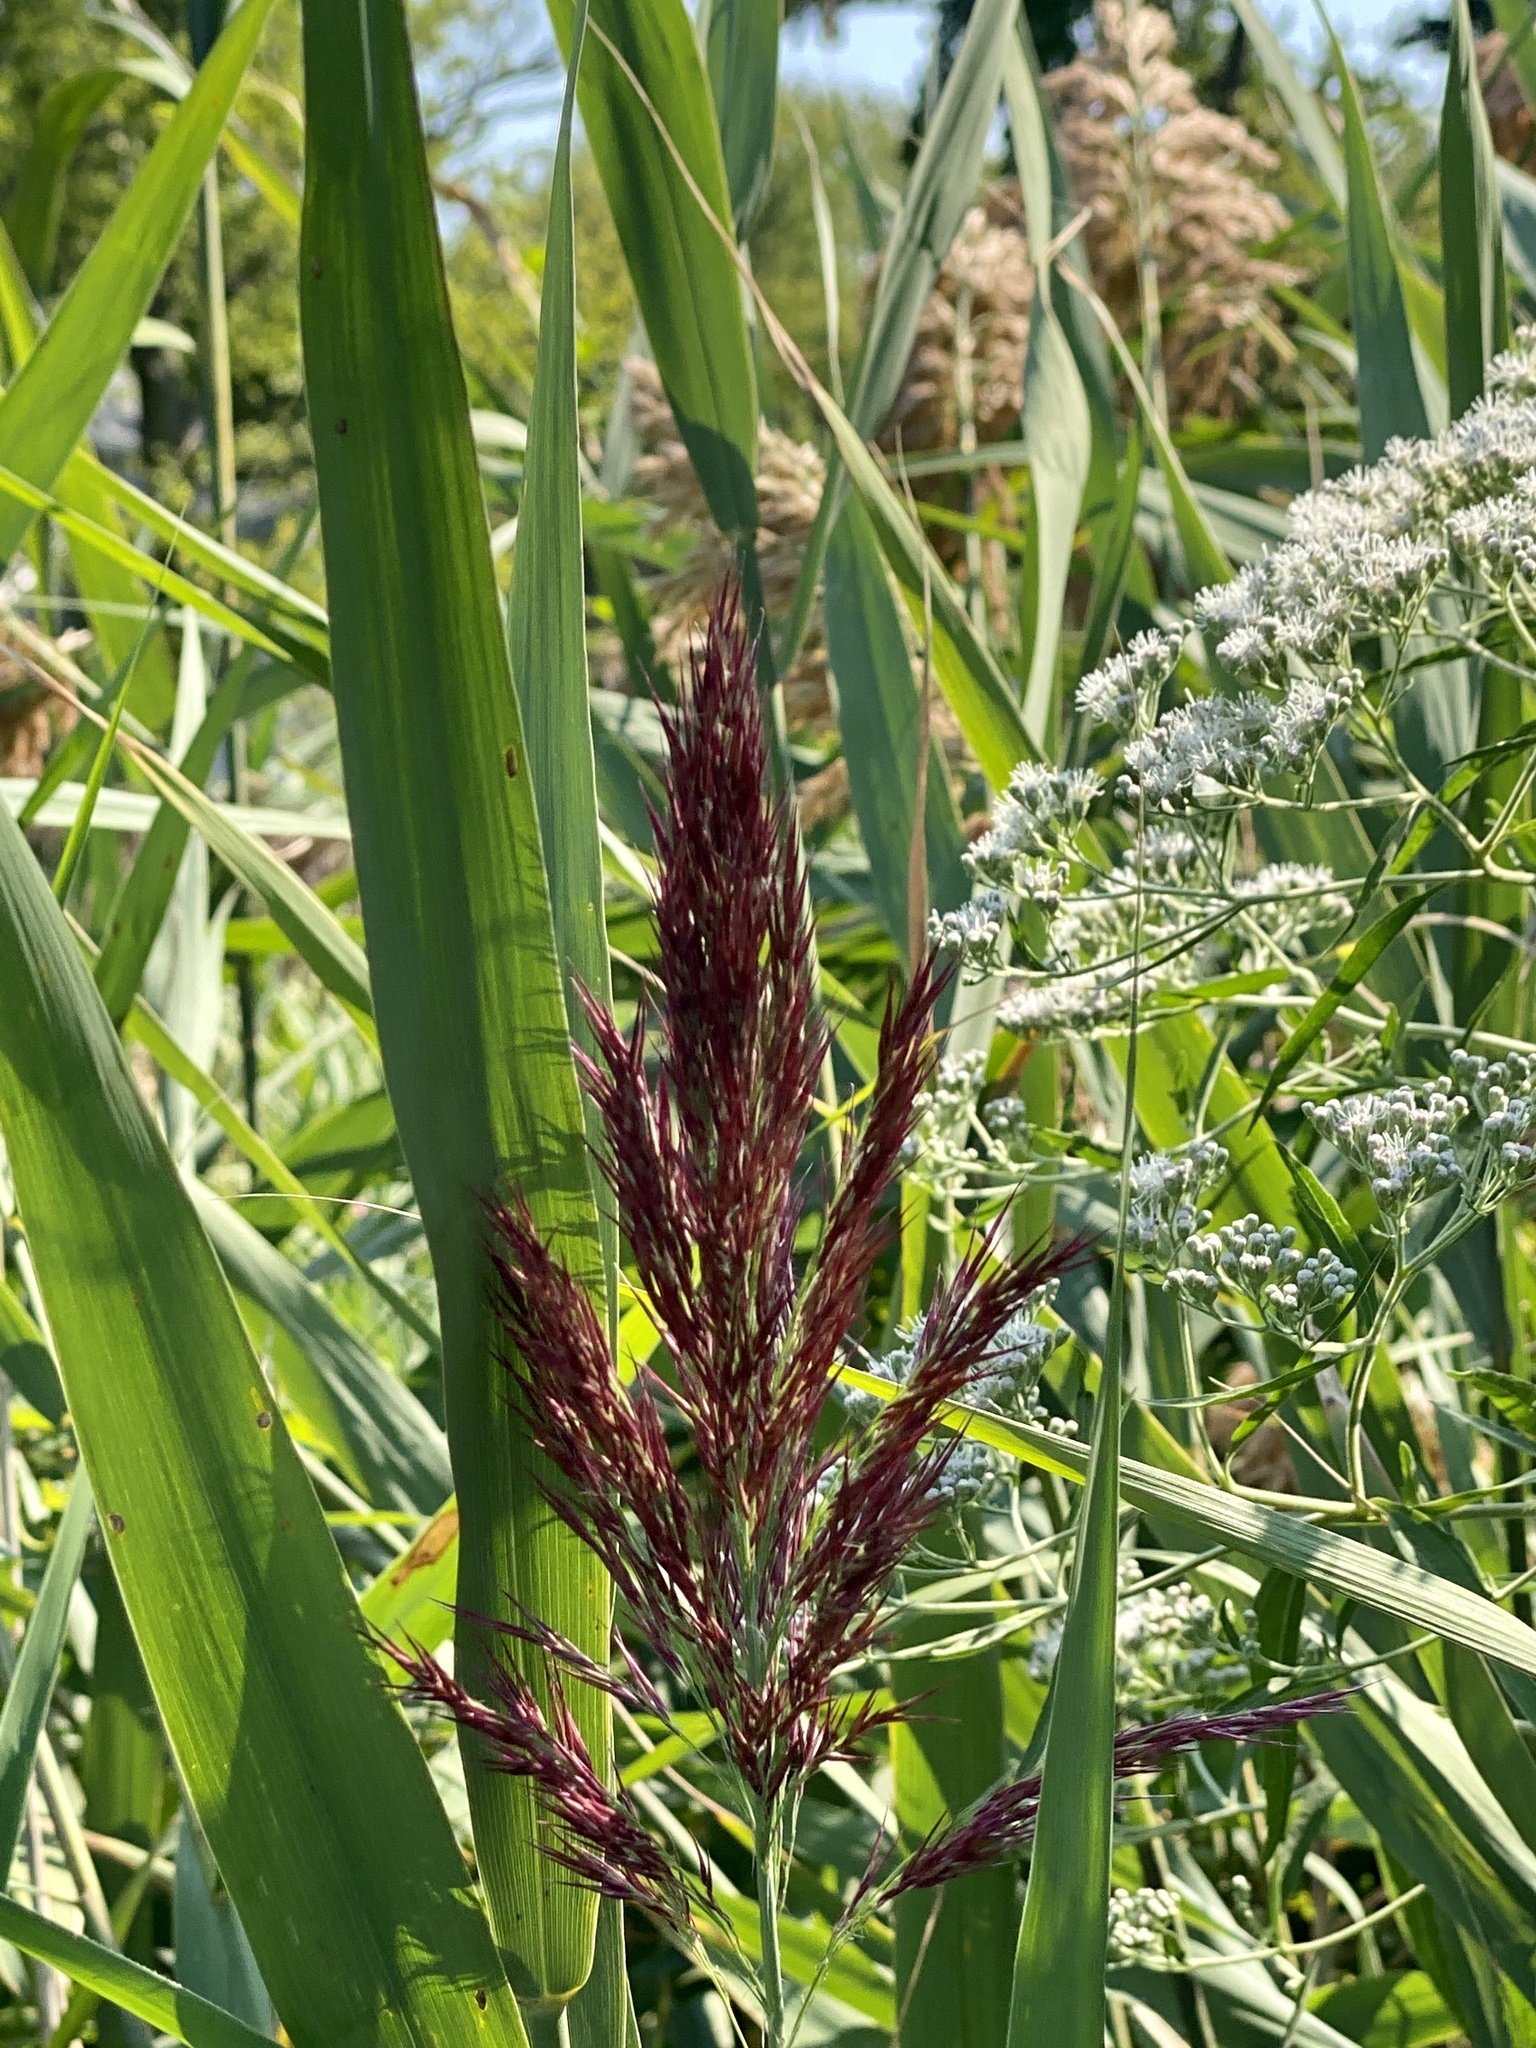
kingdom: Plantae
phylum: Tracheophyta
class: Liliopsida
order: Poales
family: Poaceae
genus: Phragmites
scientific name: Phragmites australis
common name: Common reed
